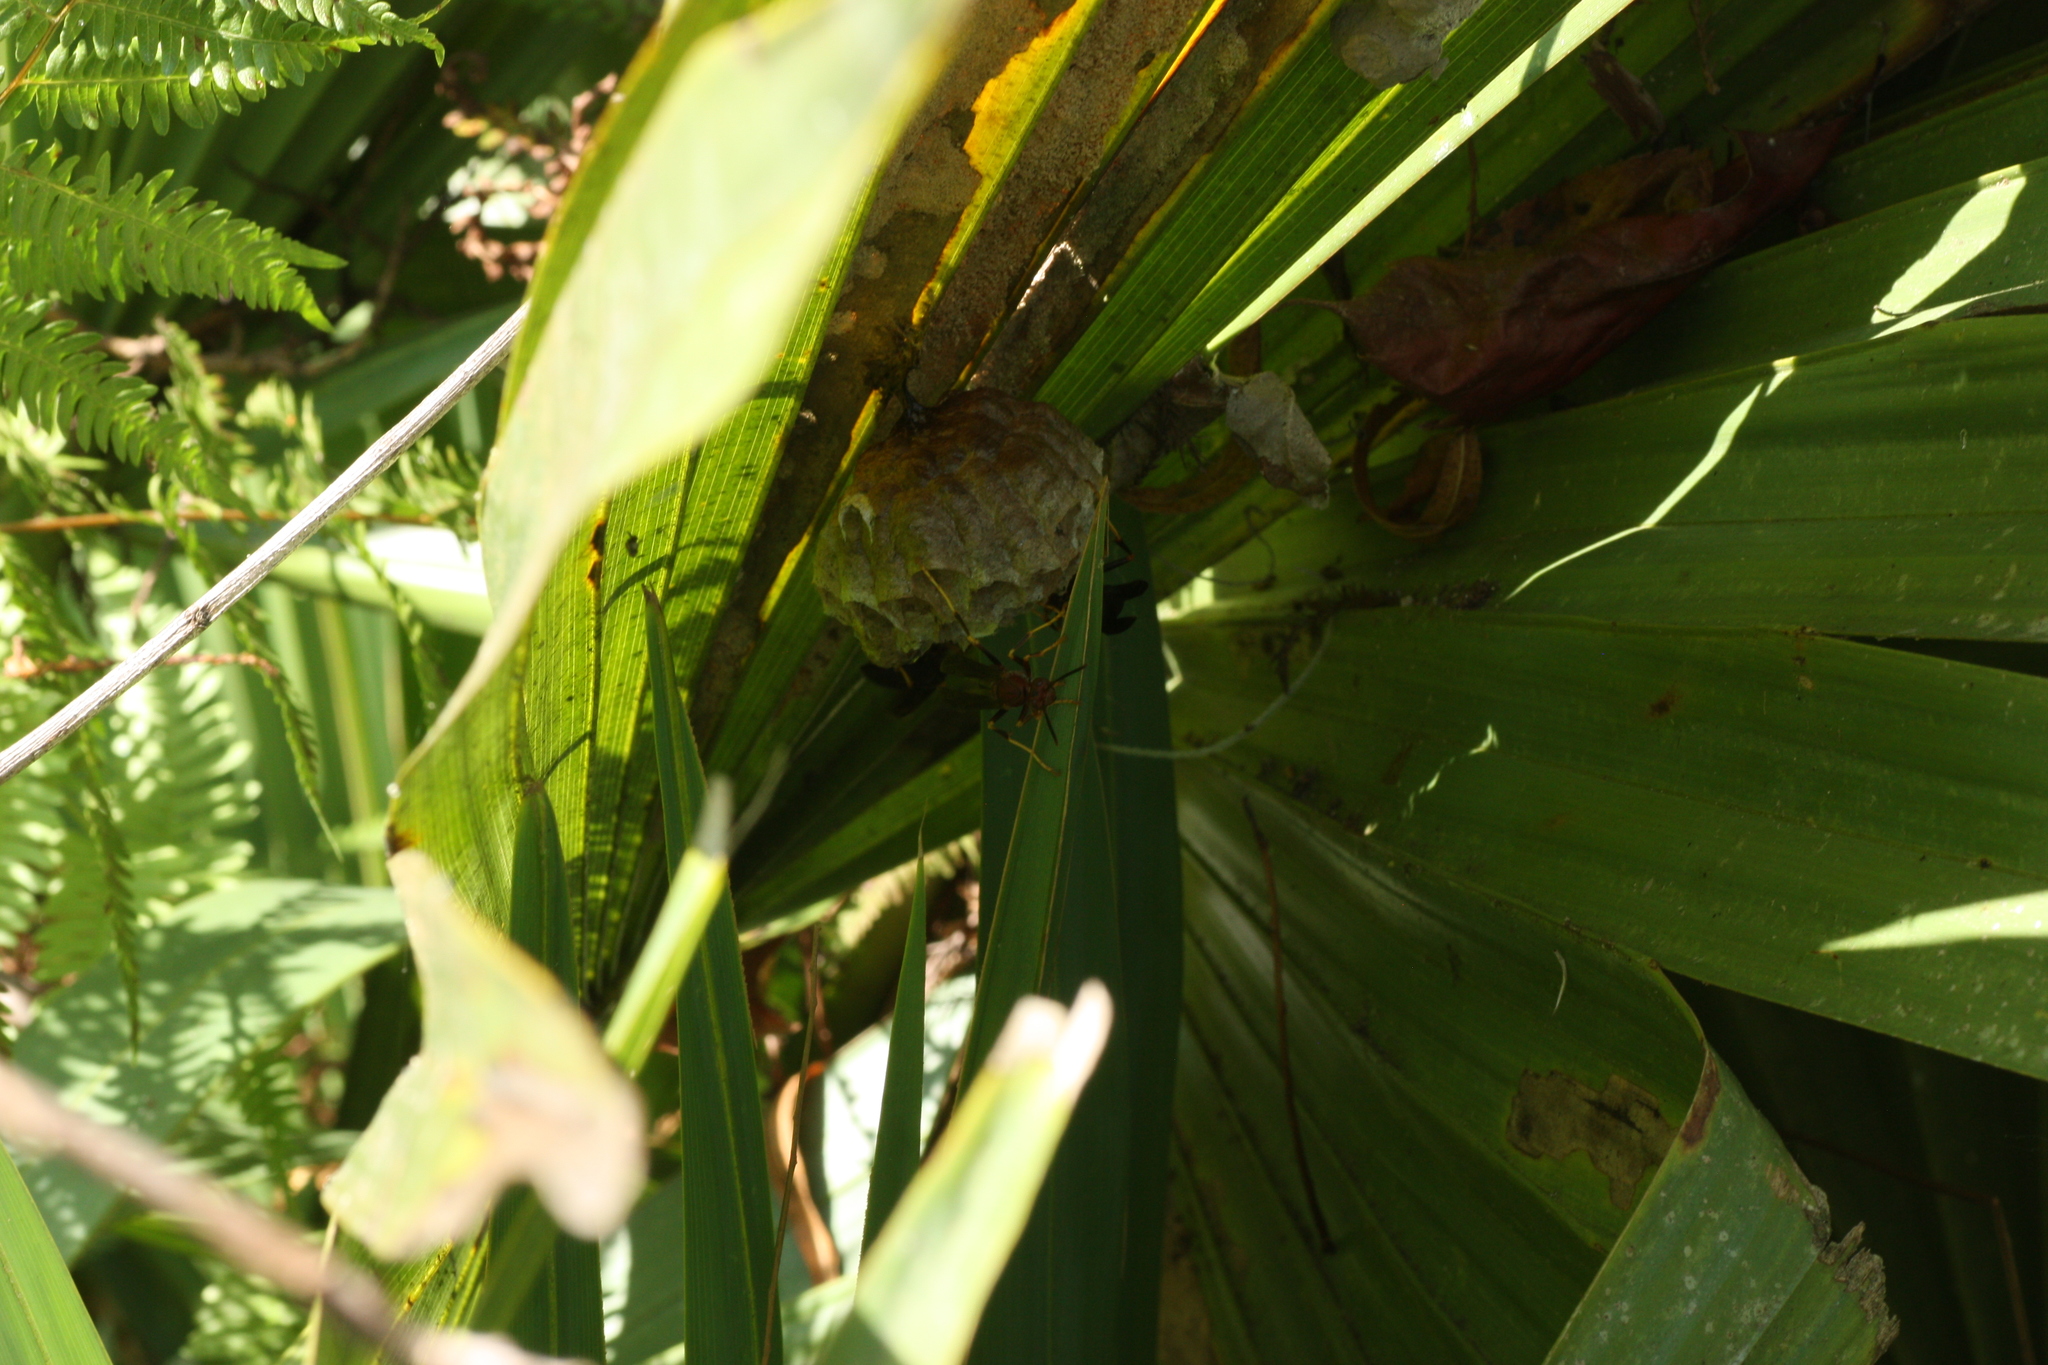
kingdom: Animalia
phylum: Arthropoda
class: Insecta
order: Hymenoptera
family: Vespidae
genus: Fuscopolistes
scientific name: Fuscopolistes
